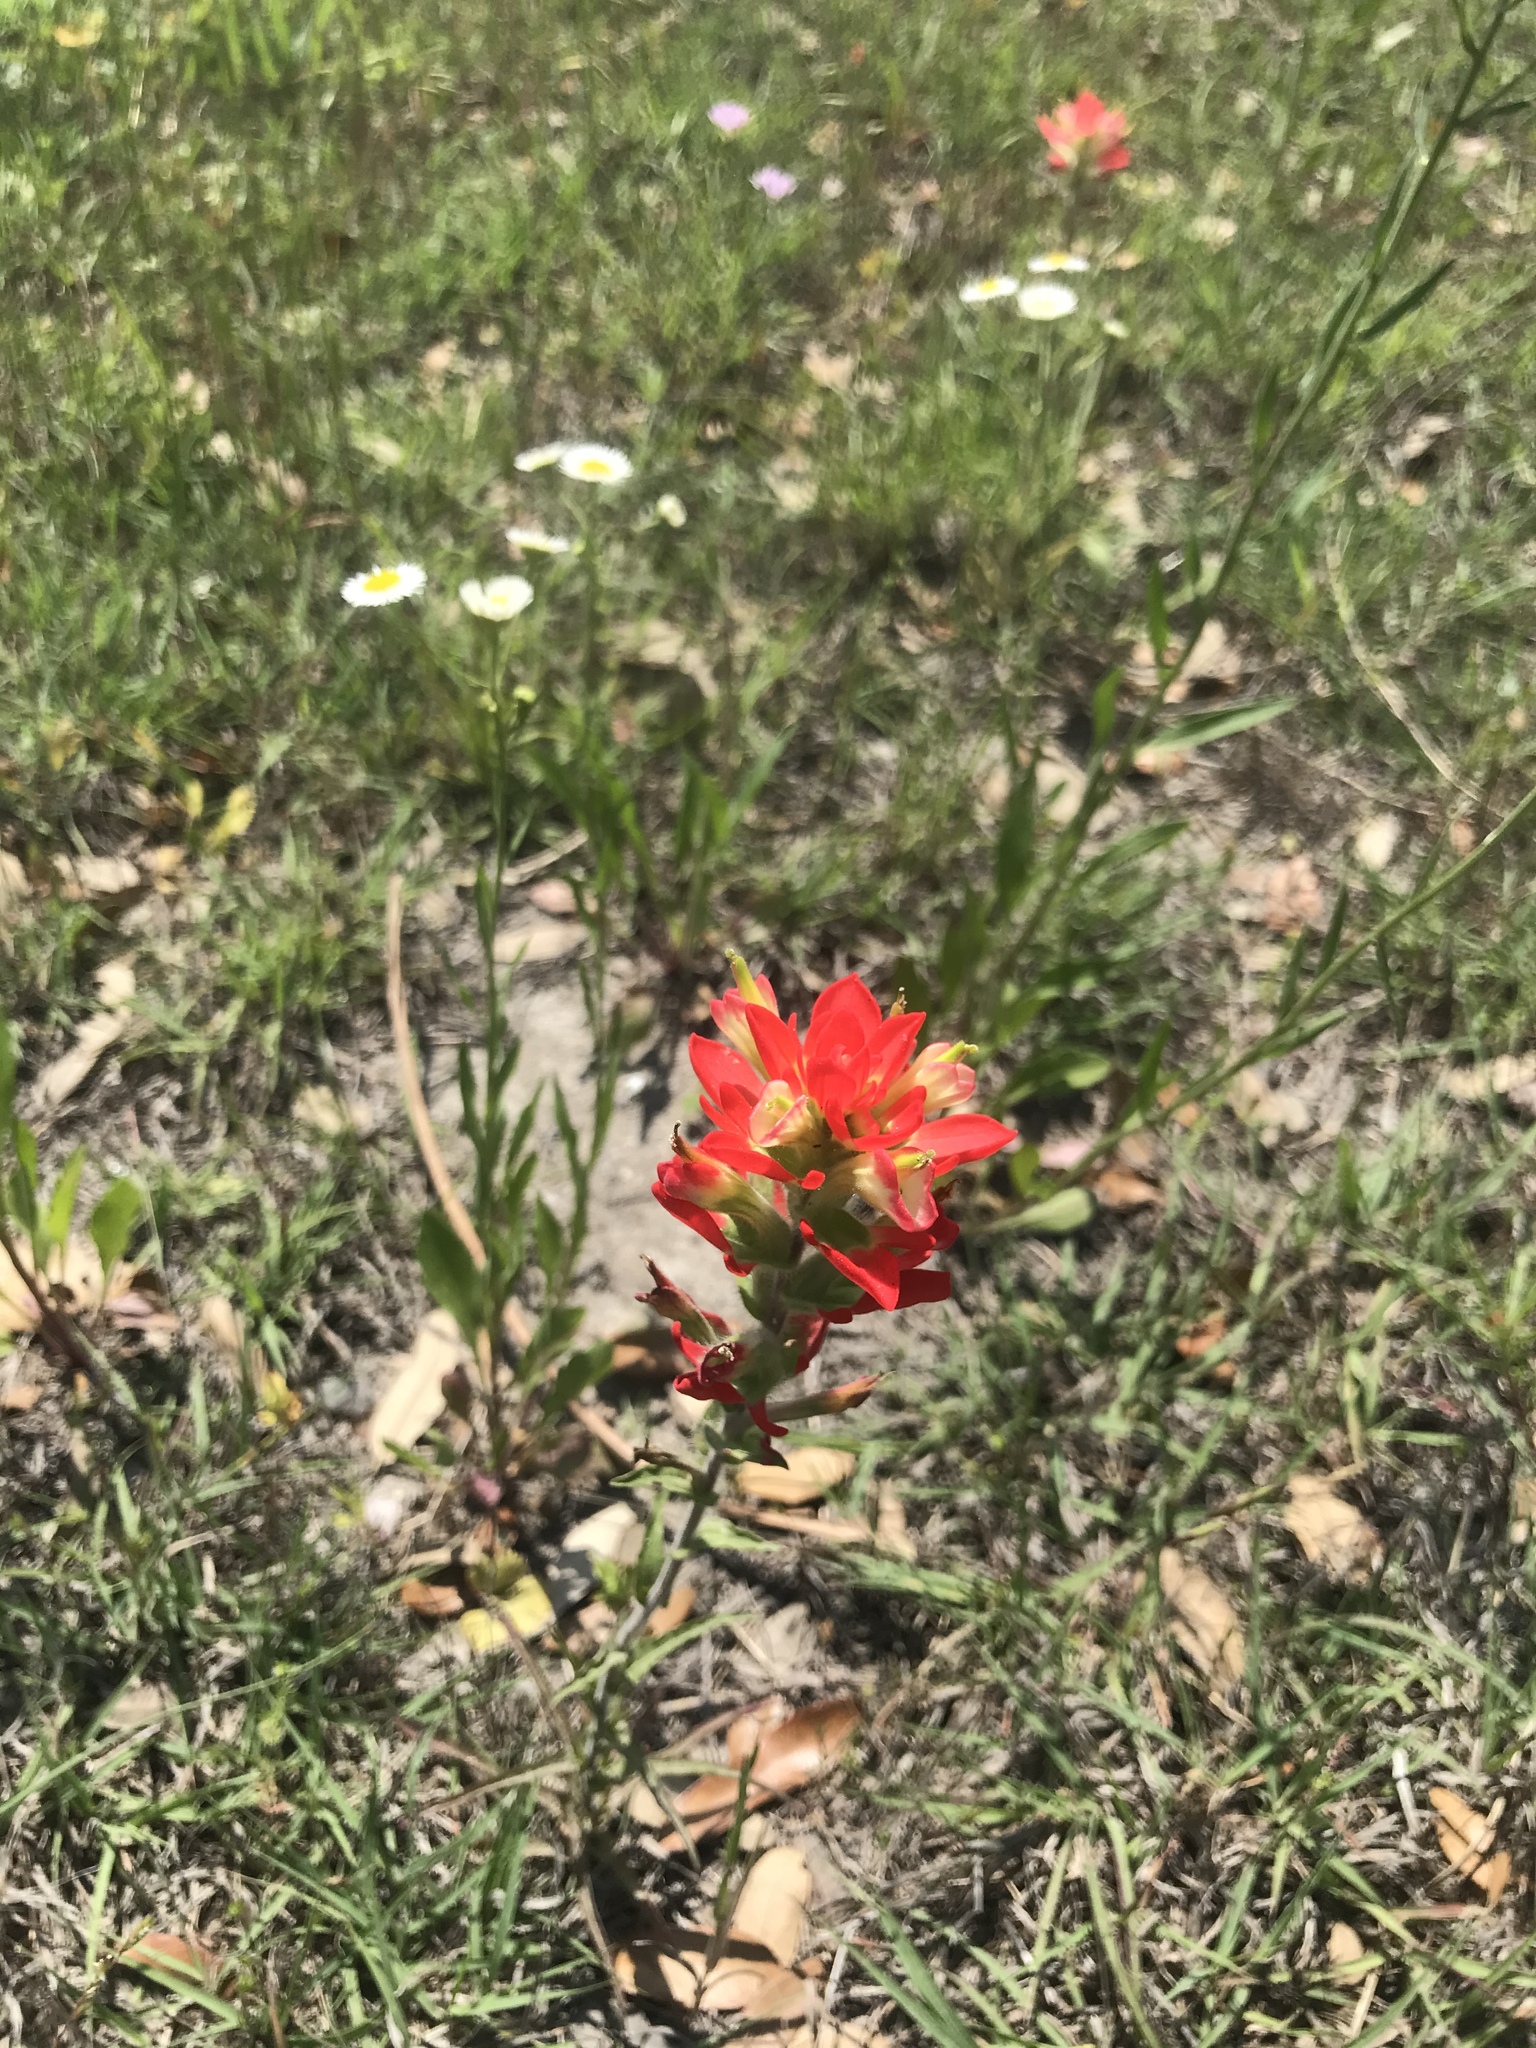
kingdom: Plantae
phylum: Tracheophyta
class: Magnoliopsida
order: Lamiales
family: Orobanchaceae
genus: Castilleja
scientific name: Castilleja indivisa
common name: Texas paintbrush
